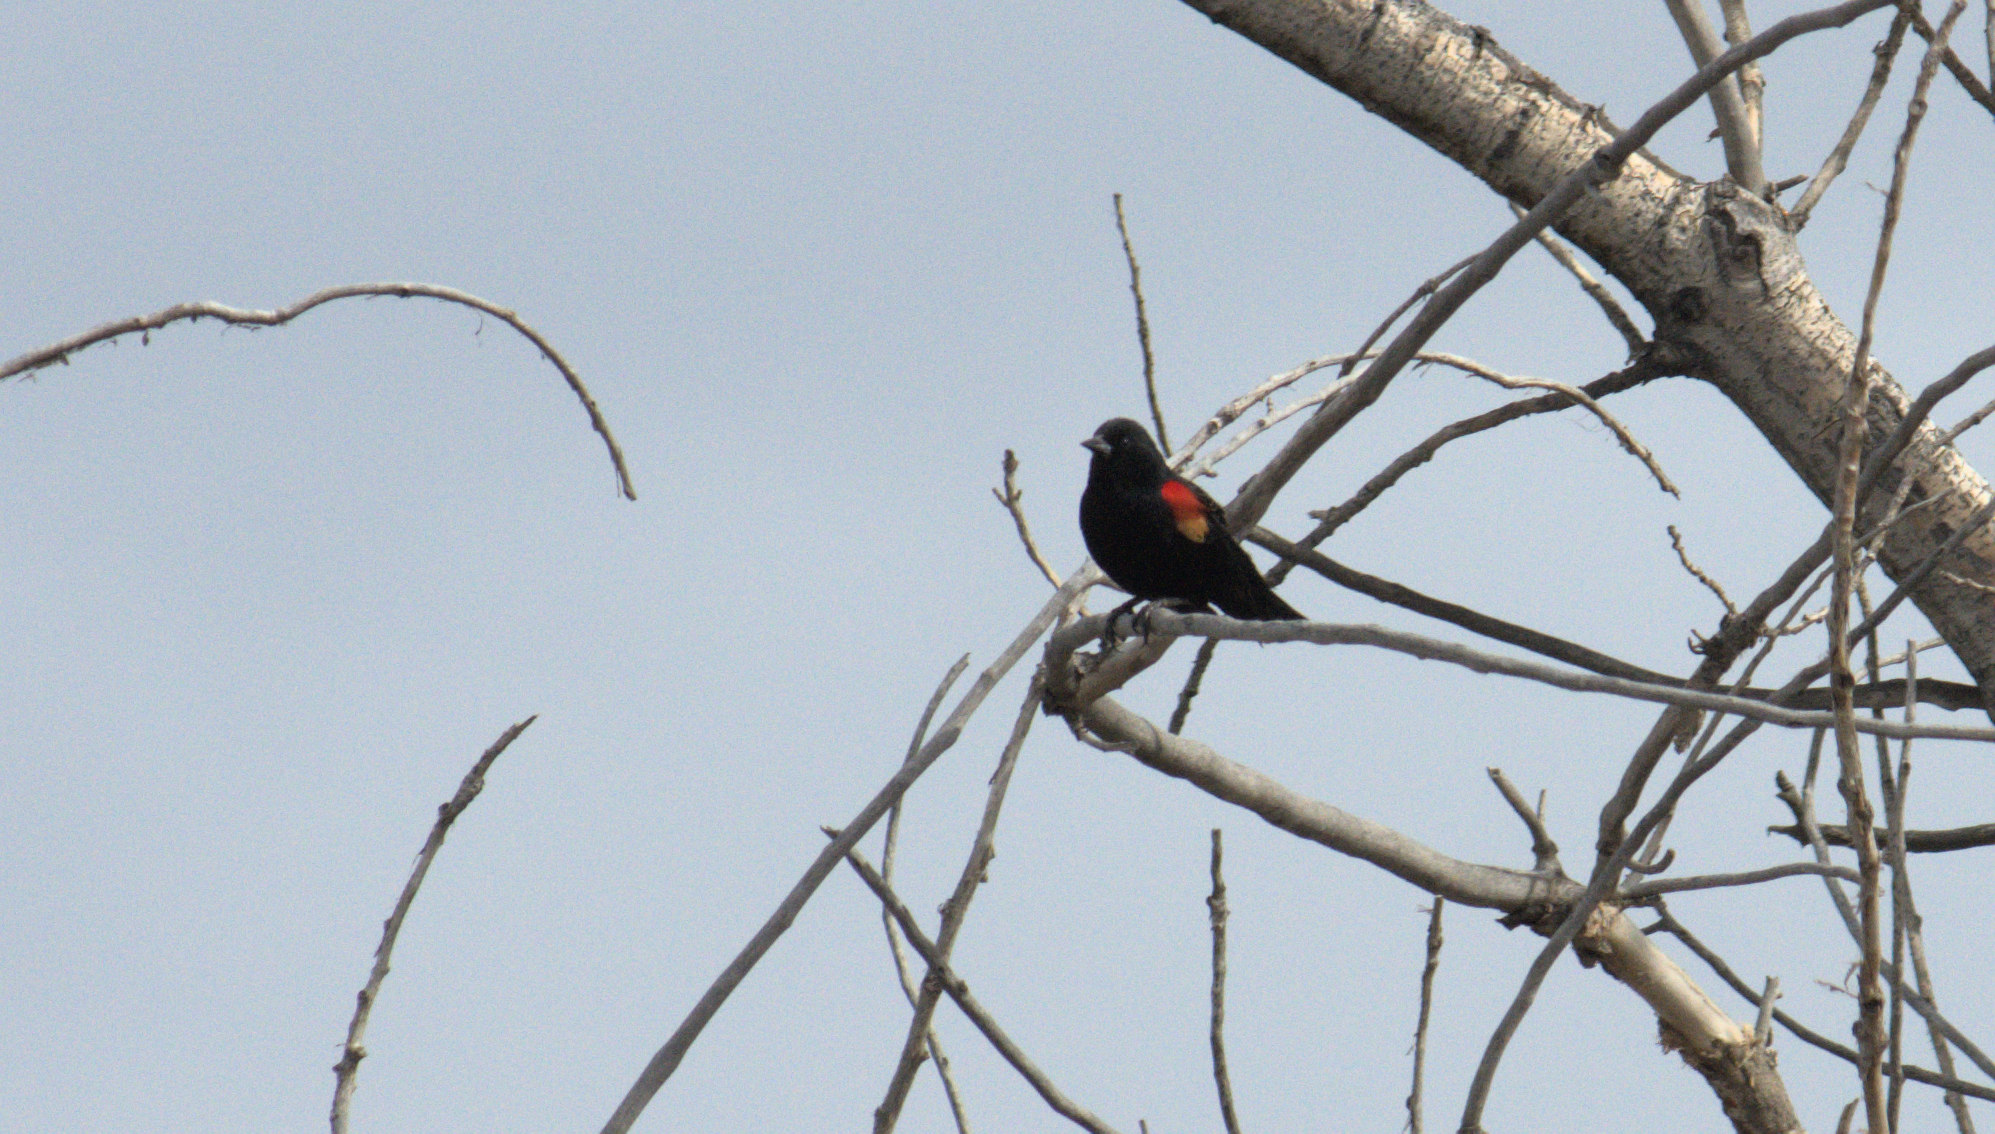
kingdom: Animalia
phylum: Chordata
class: Aves
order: Passeriformes
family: Icteridae
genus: Agelaius
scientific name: Agelaius phoeniceus
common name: Red-winged blackbird
